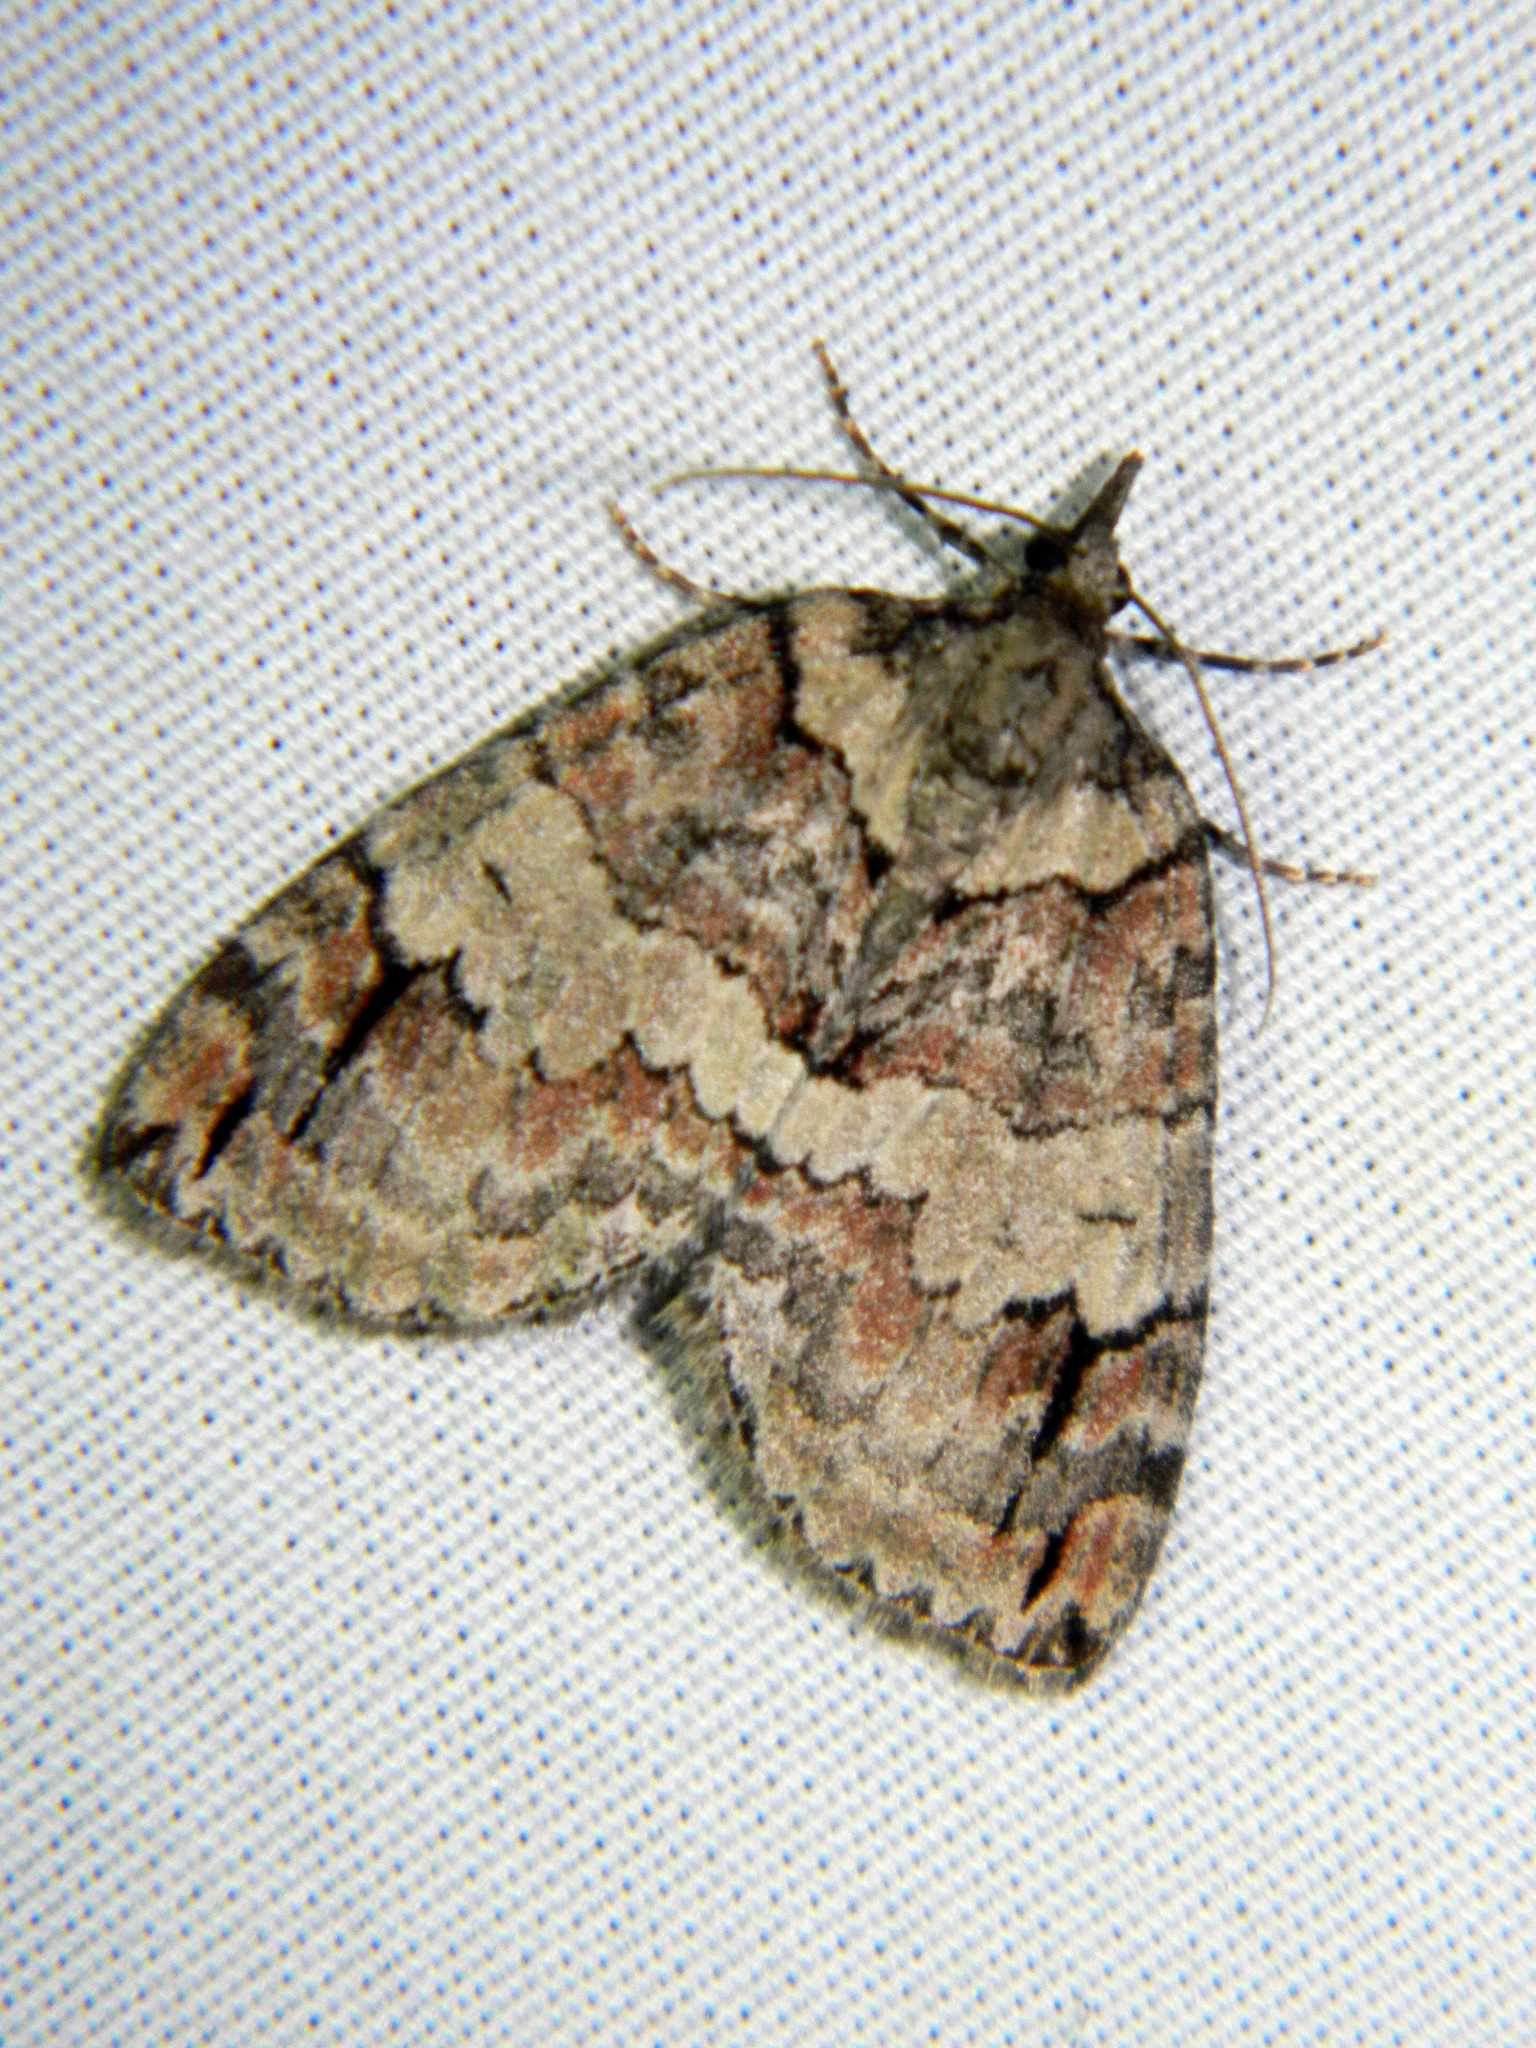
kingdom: Animalia
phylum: Arthropoda
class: Insecta
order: Lepidoptera
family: Geometridae
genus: Hydriomena
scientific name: Hydriomena ruberata
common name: Ruddy highflyer
